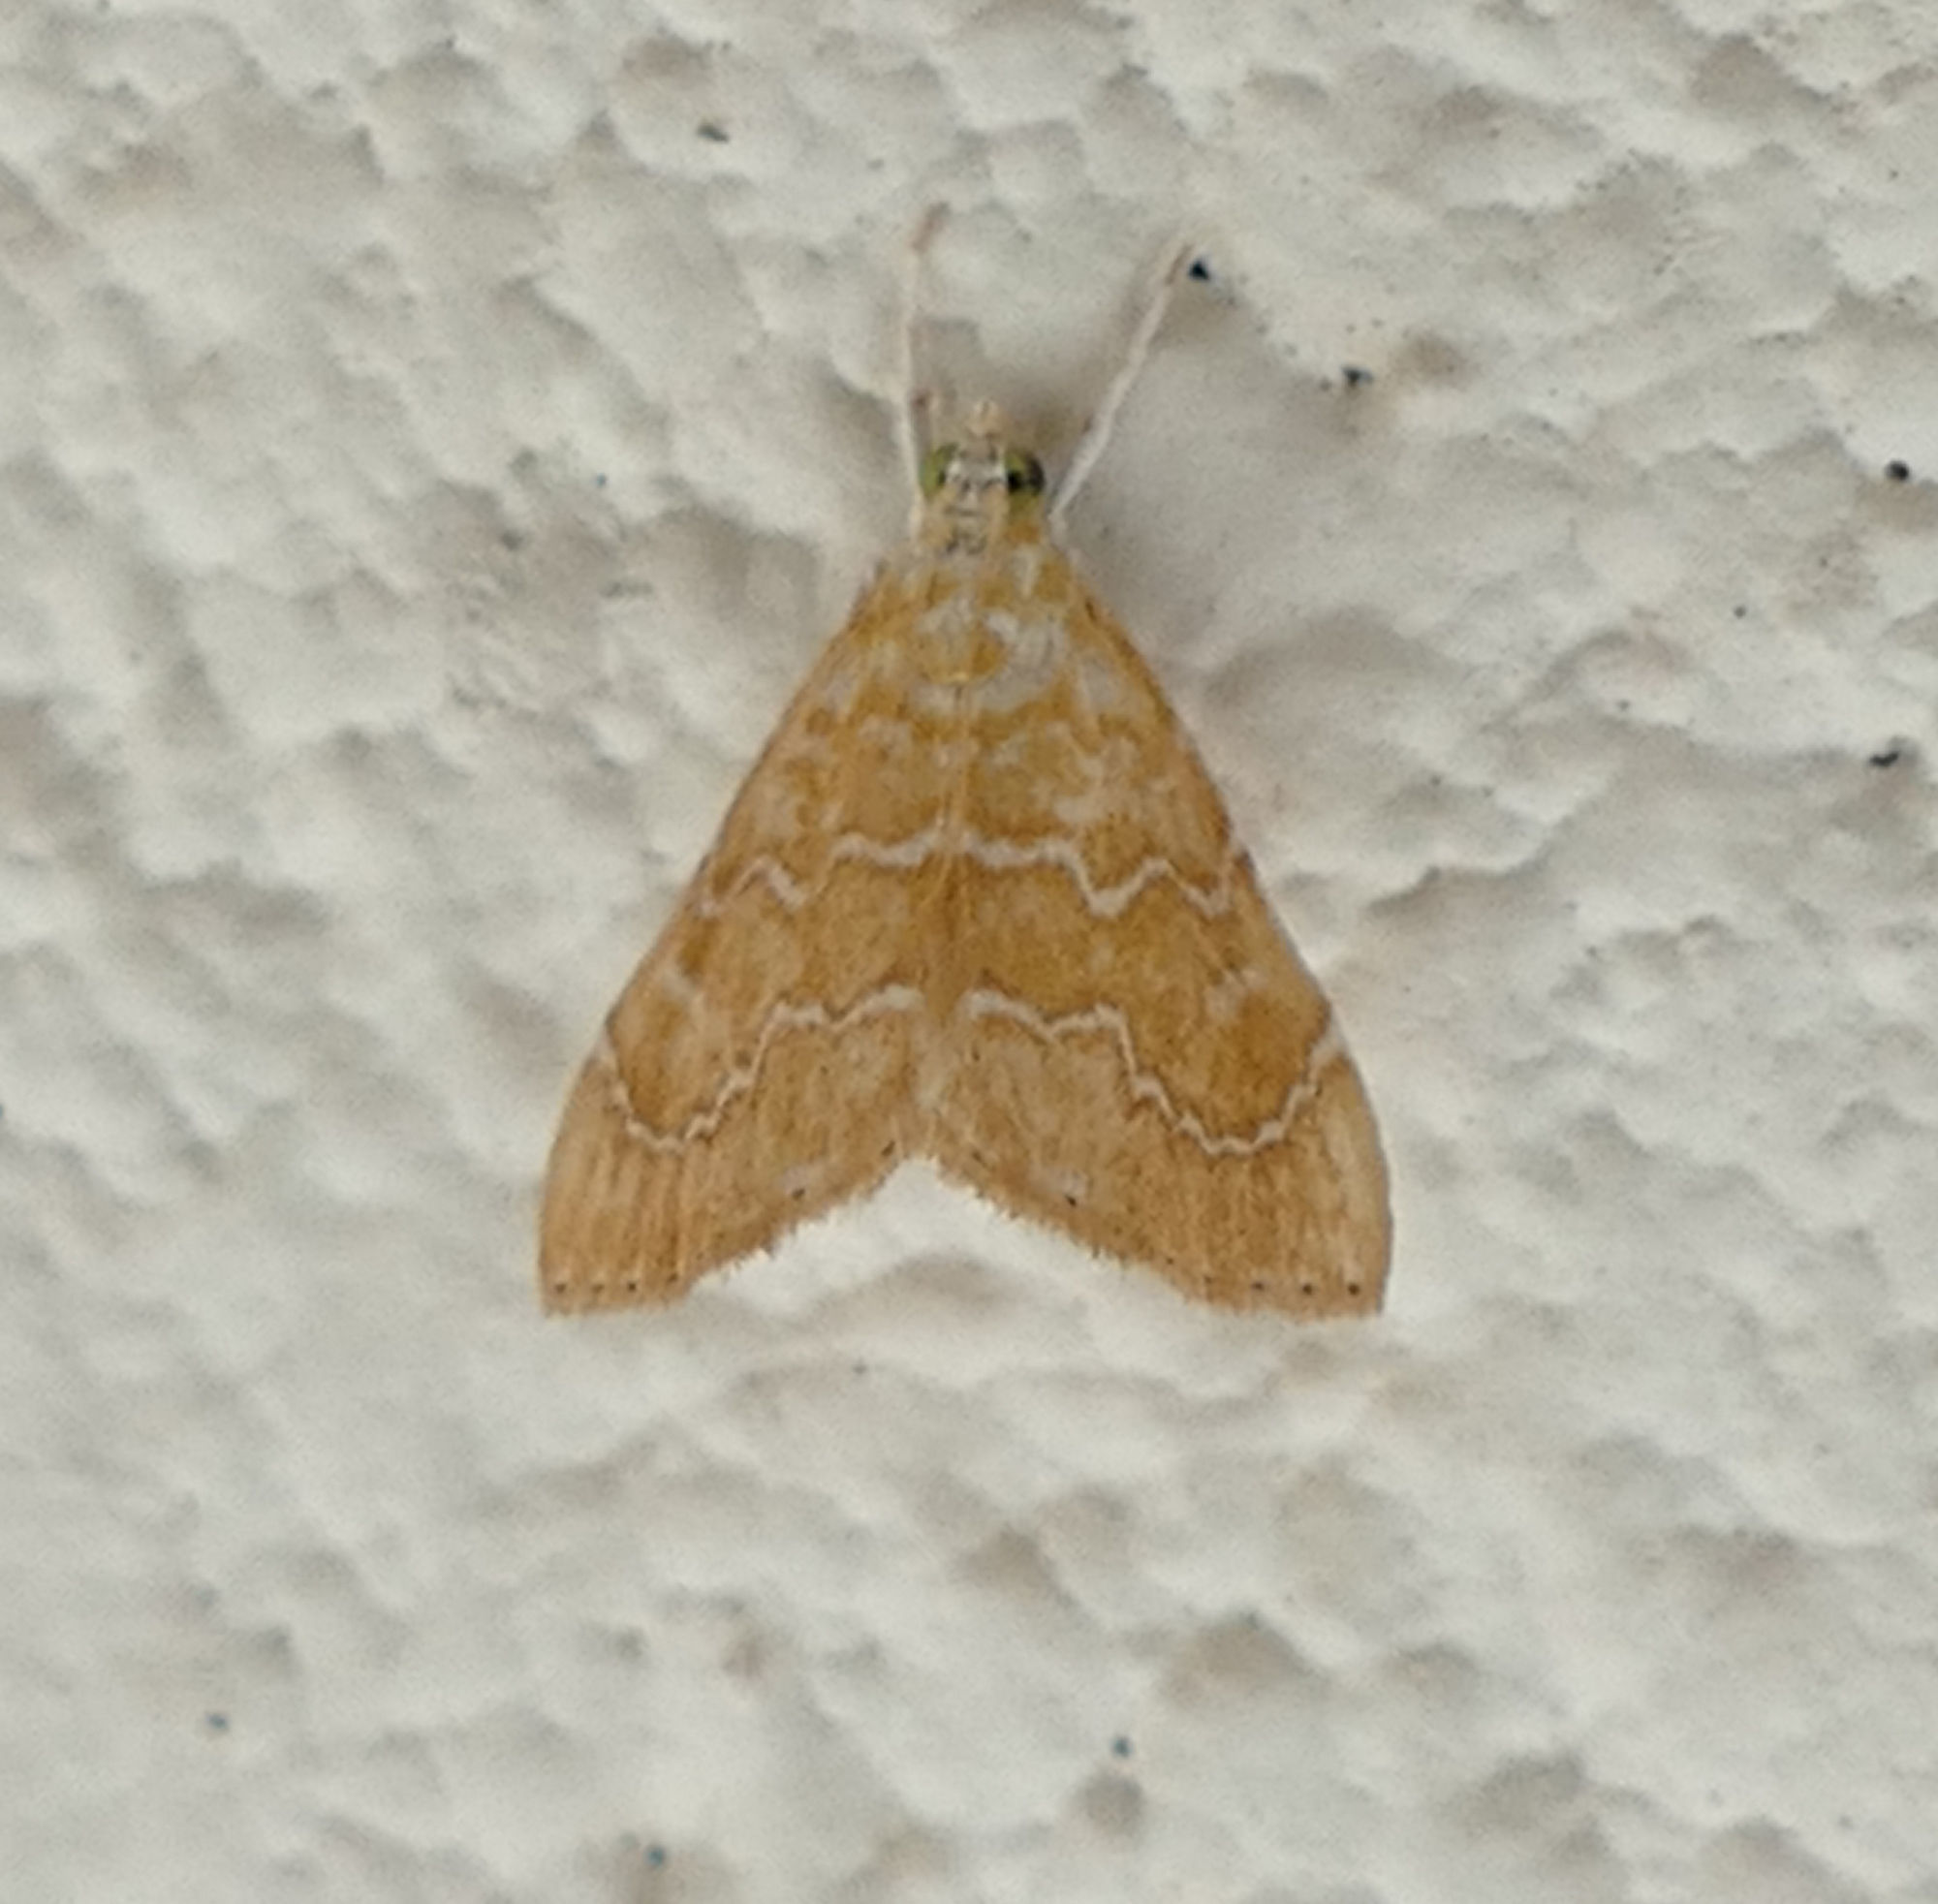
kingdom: Animalia
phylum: Arthropoda
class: Insecta
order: Lepidoptera
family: Crambidae
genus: Glaphyria
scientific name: Glaphyria sesquistrialis
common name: White-roped glaphyria
